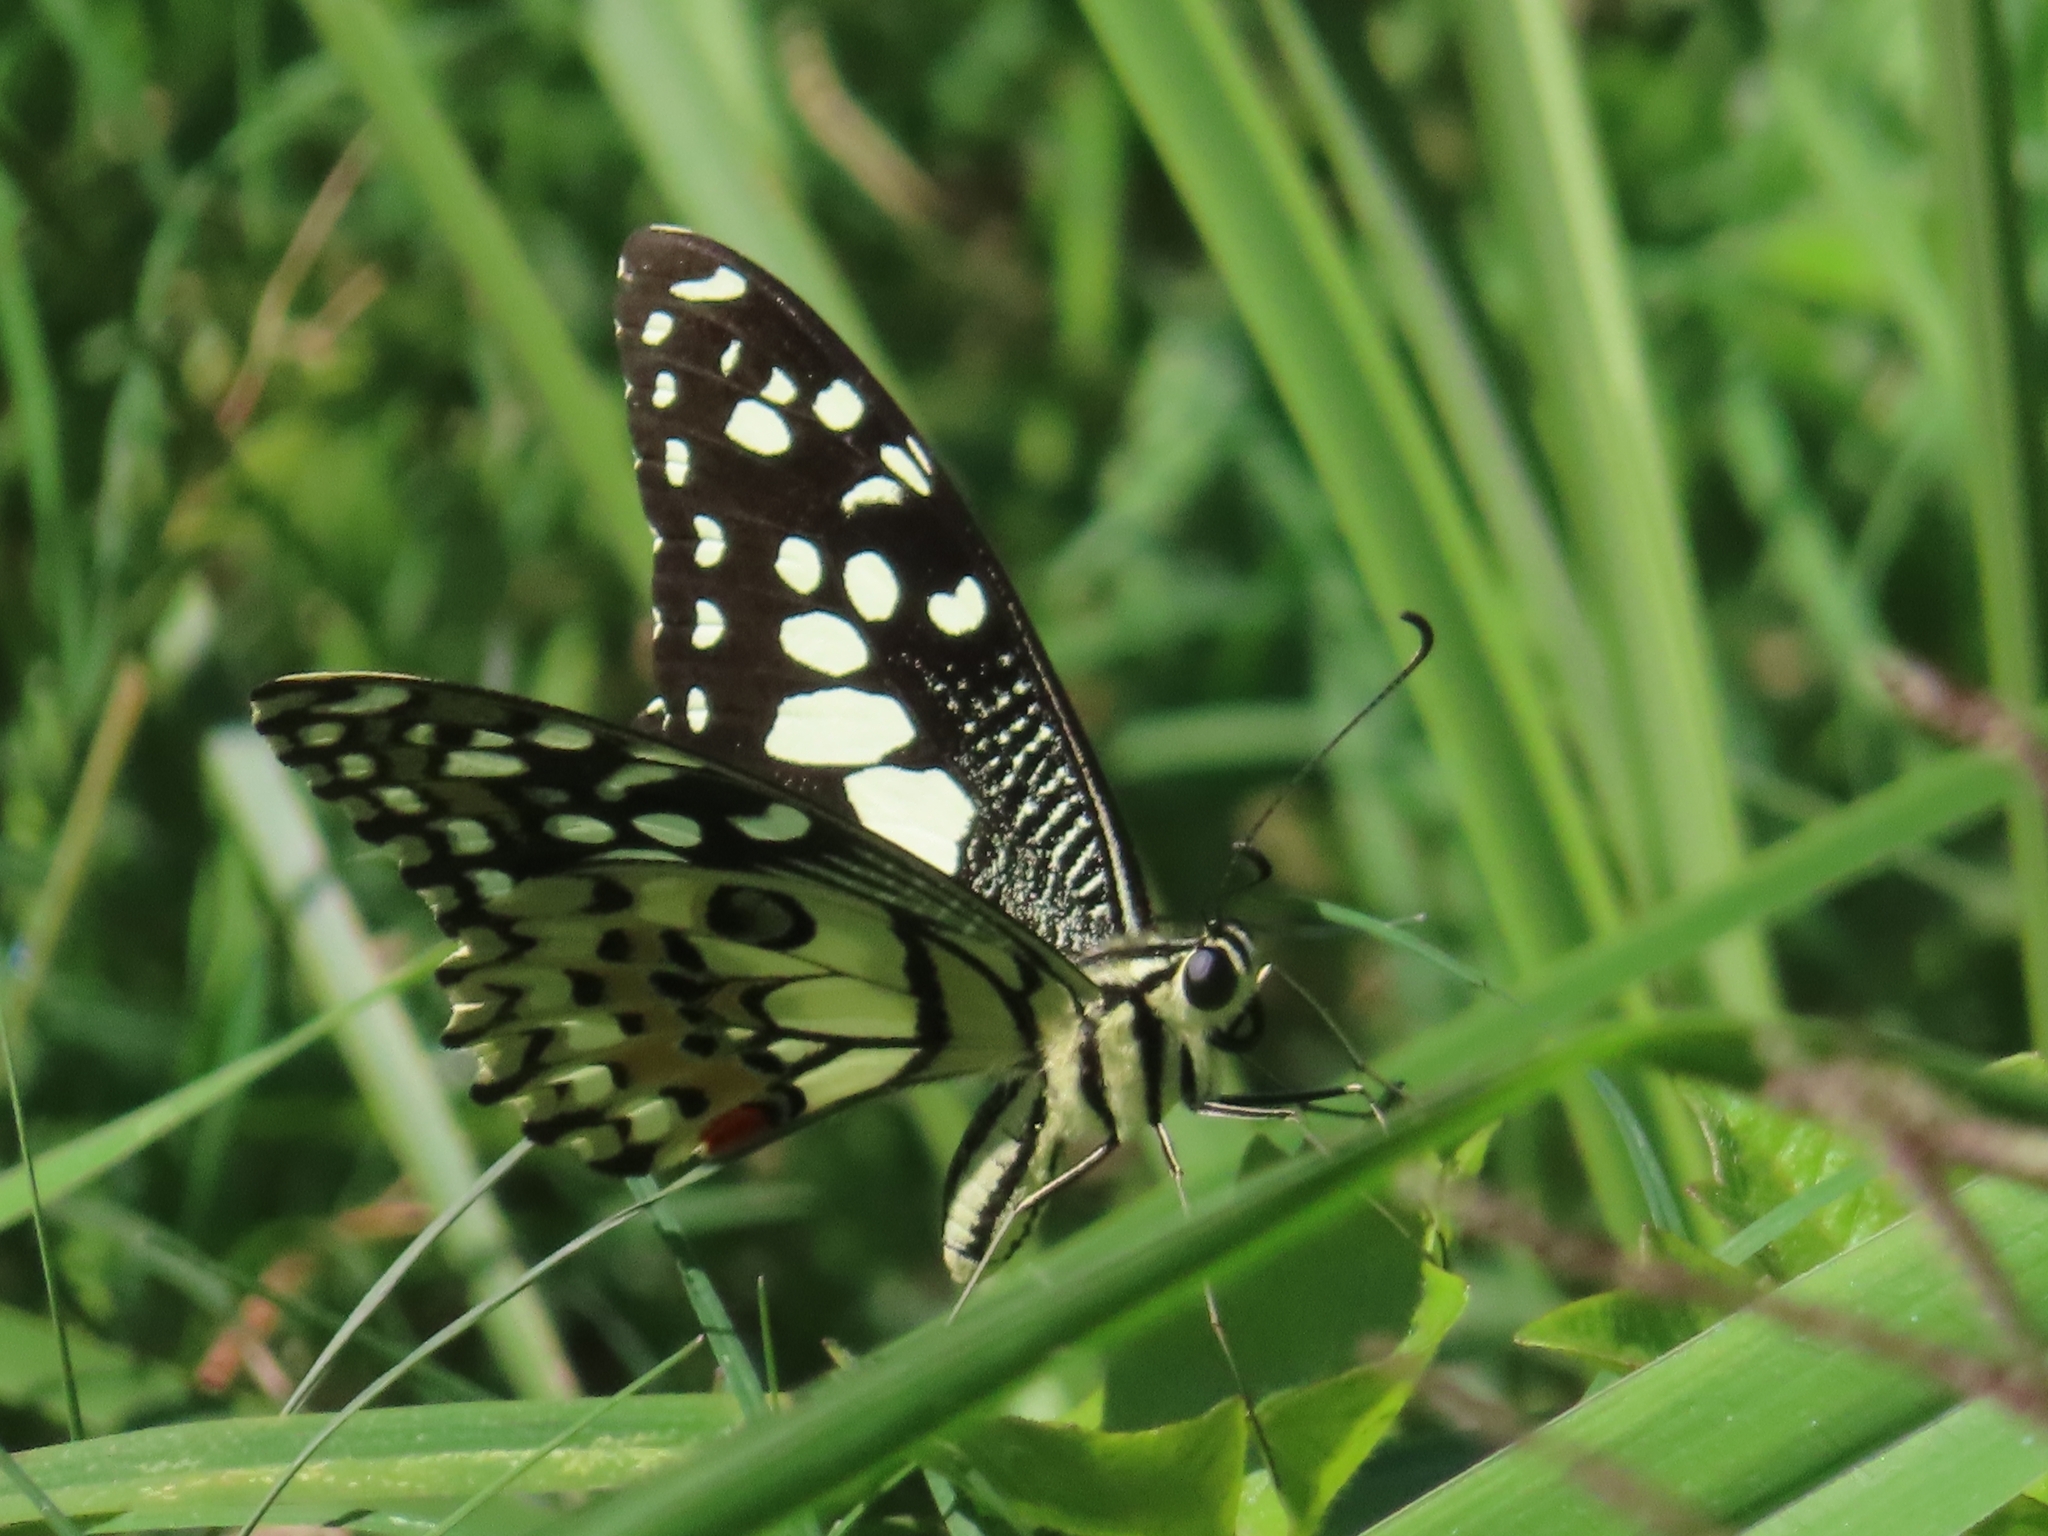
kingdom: Animalia
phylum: Arthropoda
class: Insecta
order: Lepidoptera
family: Papilionidae
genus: Papilio
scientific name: Papilio demoleus
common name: Lime butterfly
